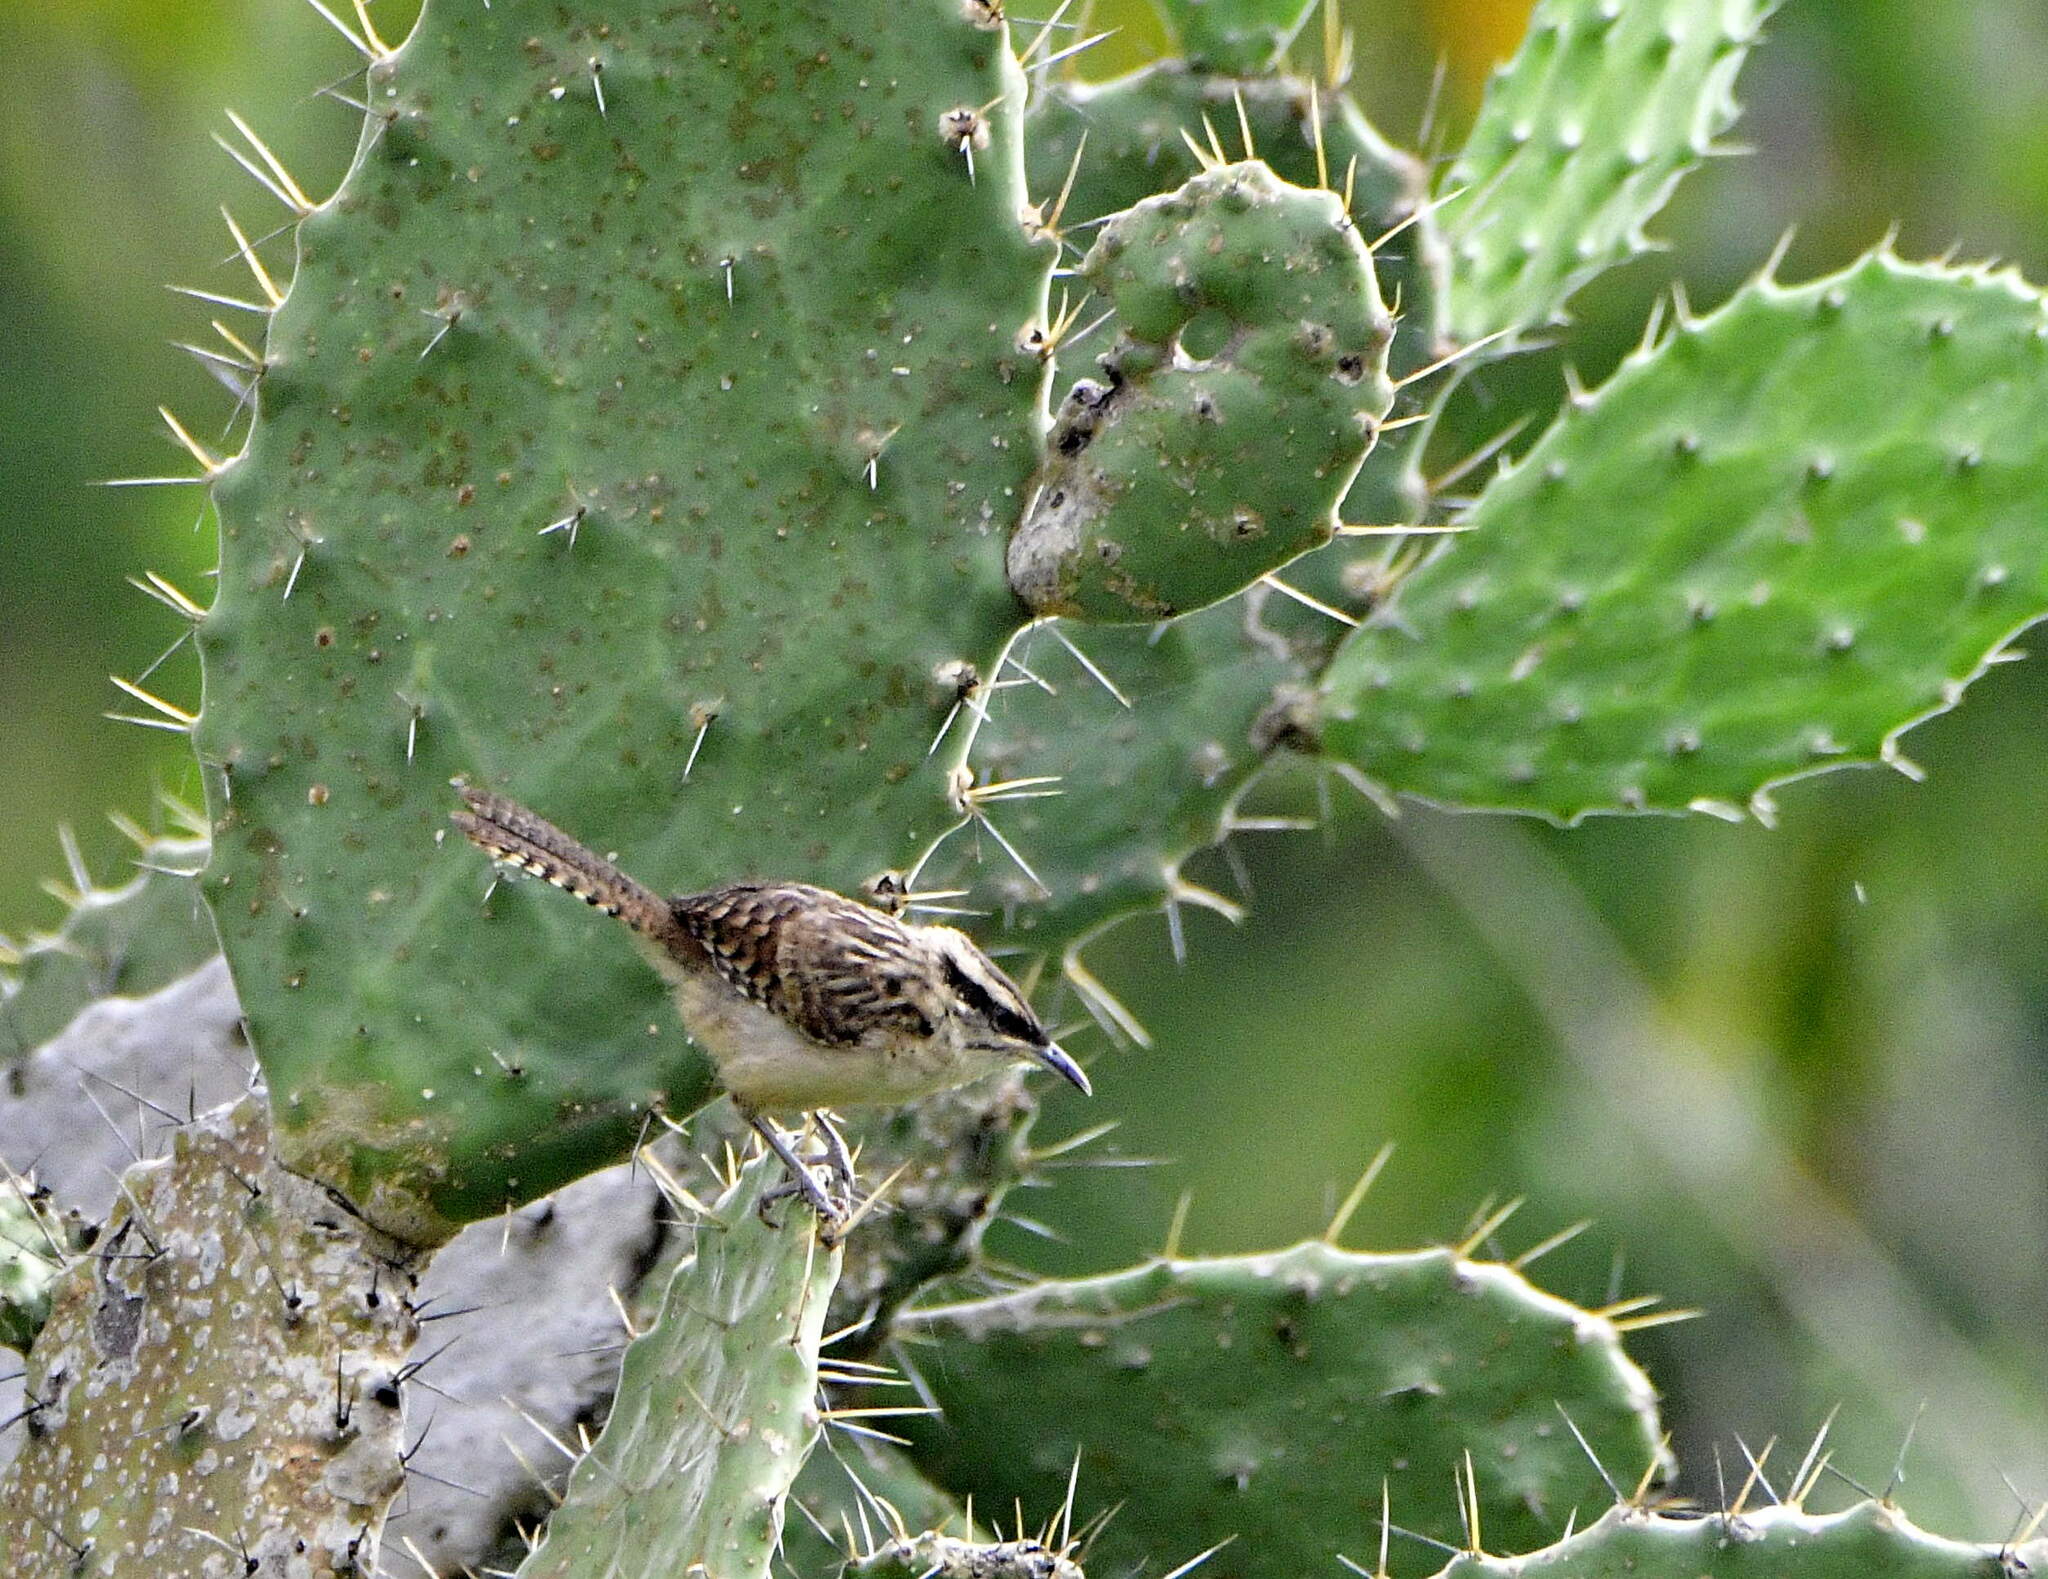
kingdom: Animalia
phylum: Chordata
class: Aves
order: Passeriformes
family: Troglodytidae
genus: Campylorhynchus
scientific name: Campylorhynchus rufinucha
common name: Rufous-naped wren
